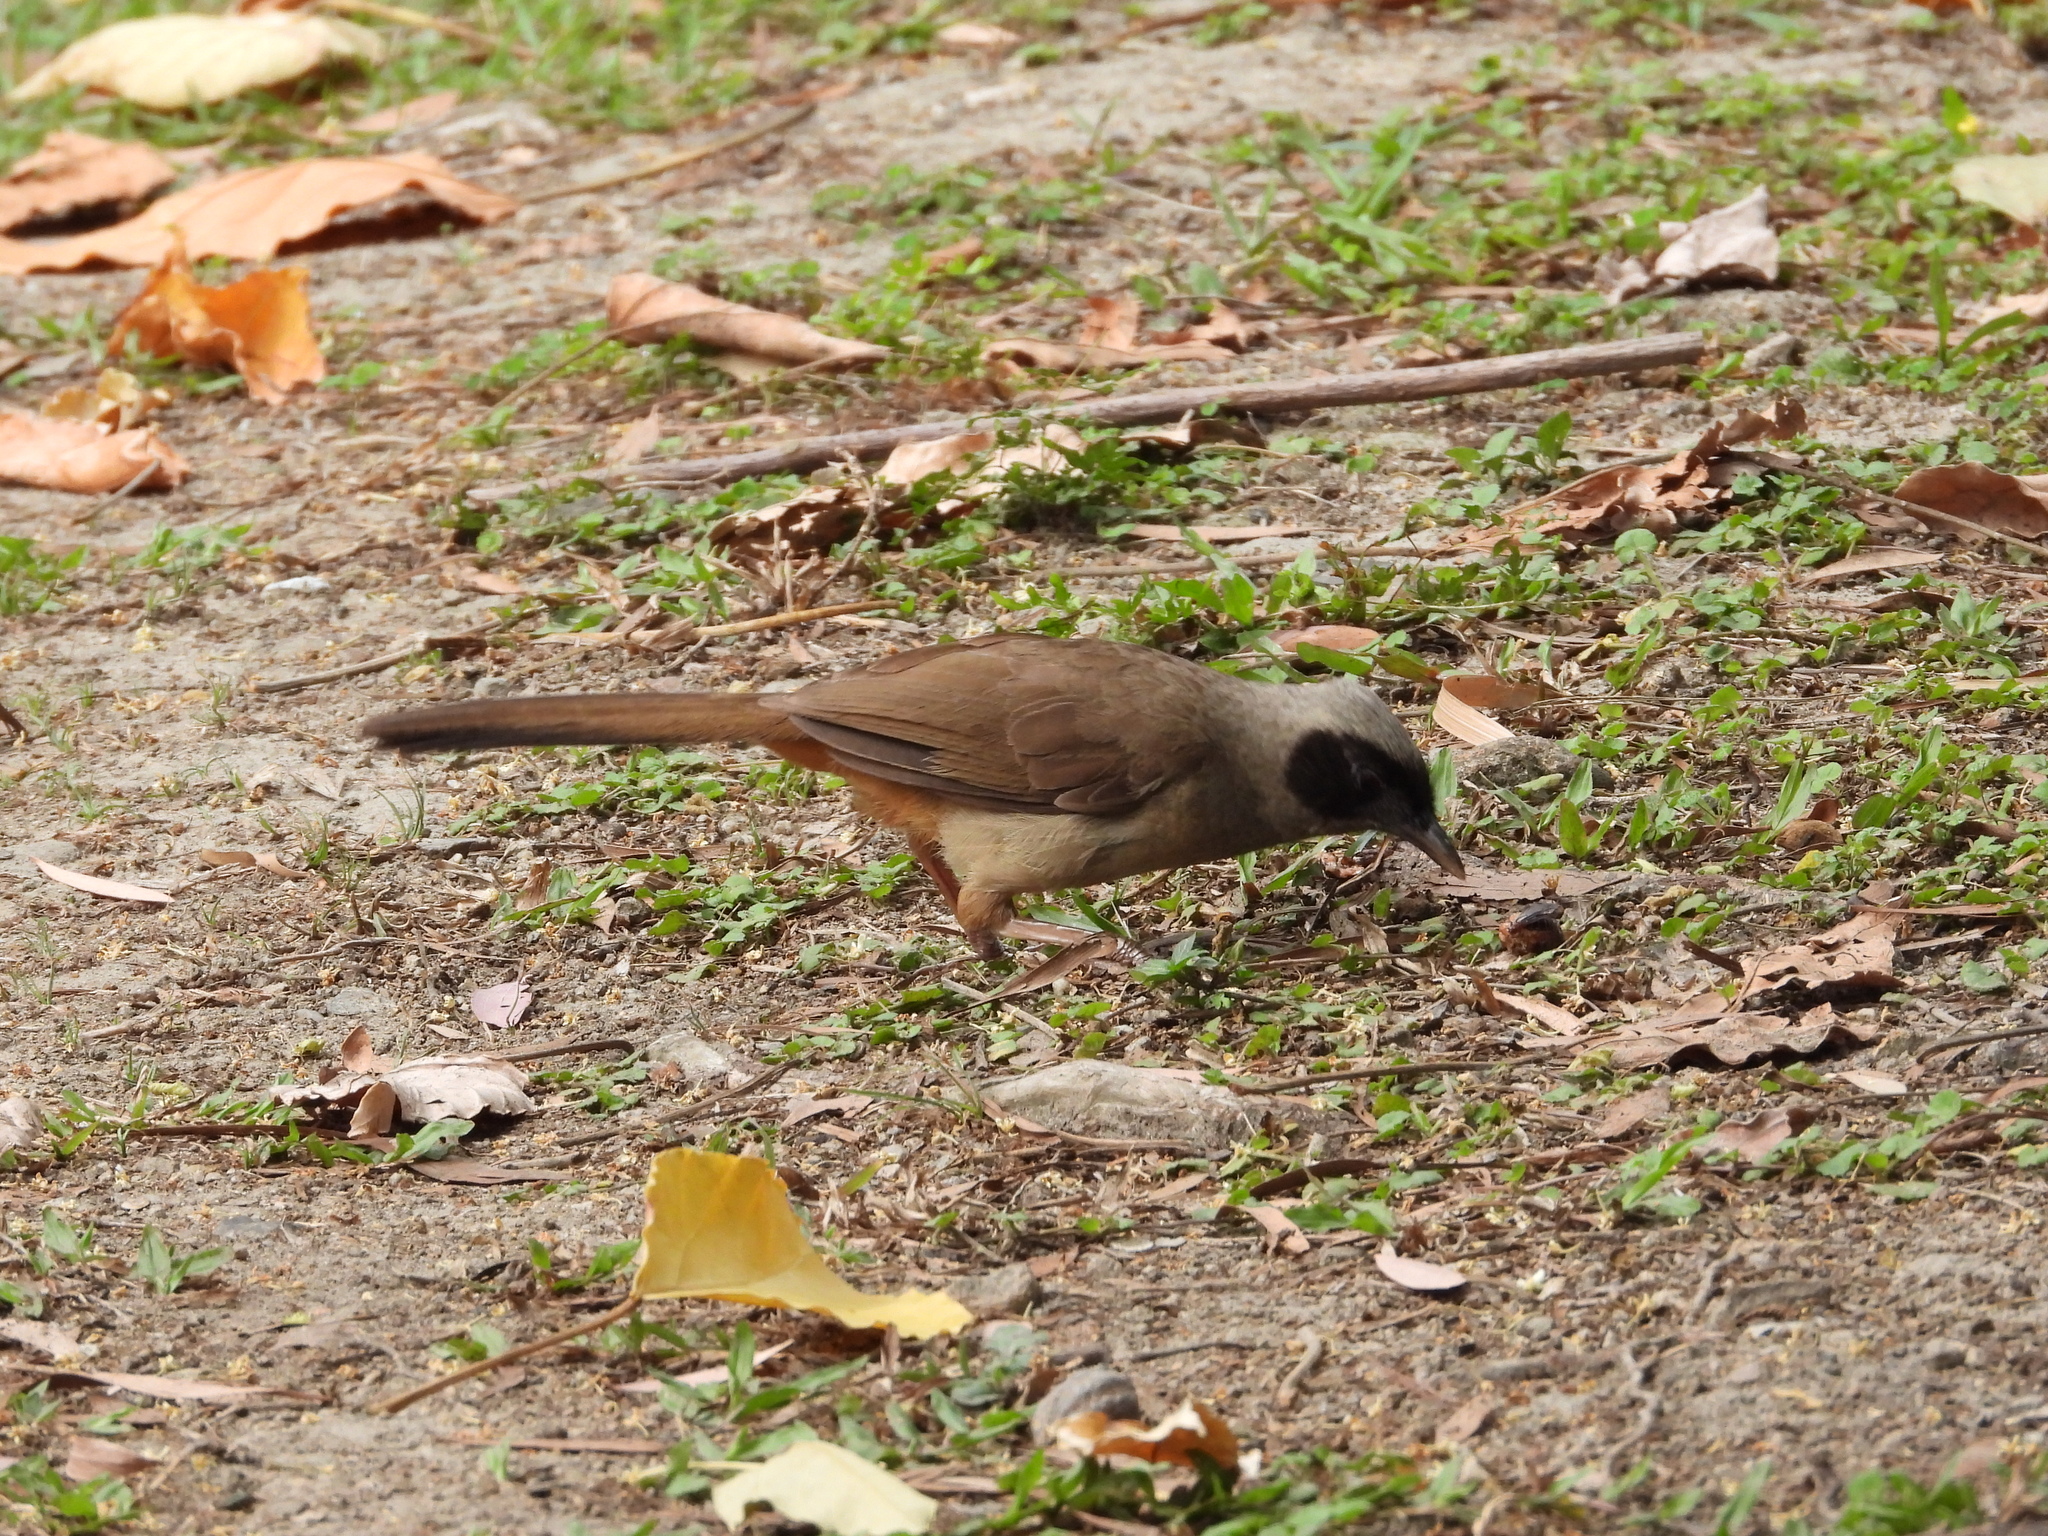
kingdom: Animalia
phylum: Chordata
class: Aves
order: Passeriformes
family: Leiothrichidae
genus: Garrulax
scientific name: Garrulax perspicillatus
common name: Masked laughingthrush
